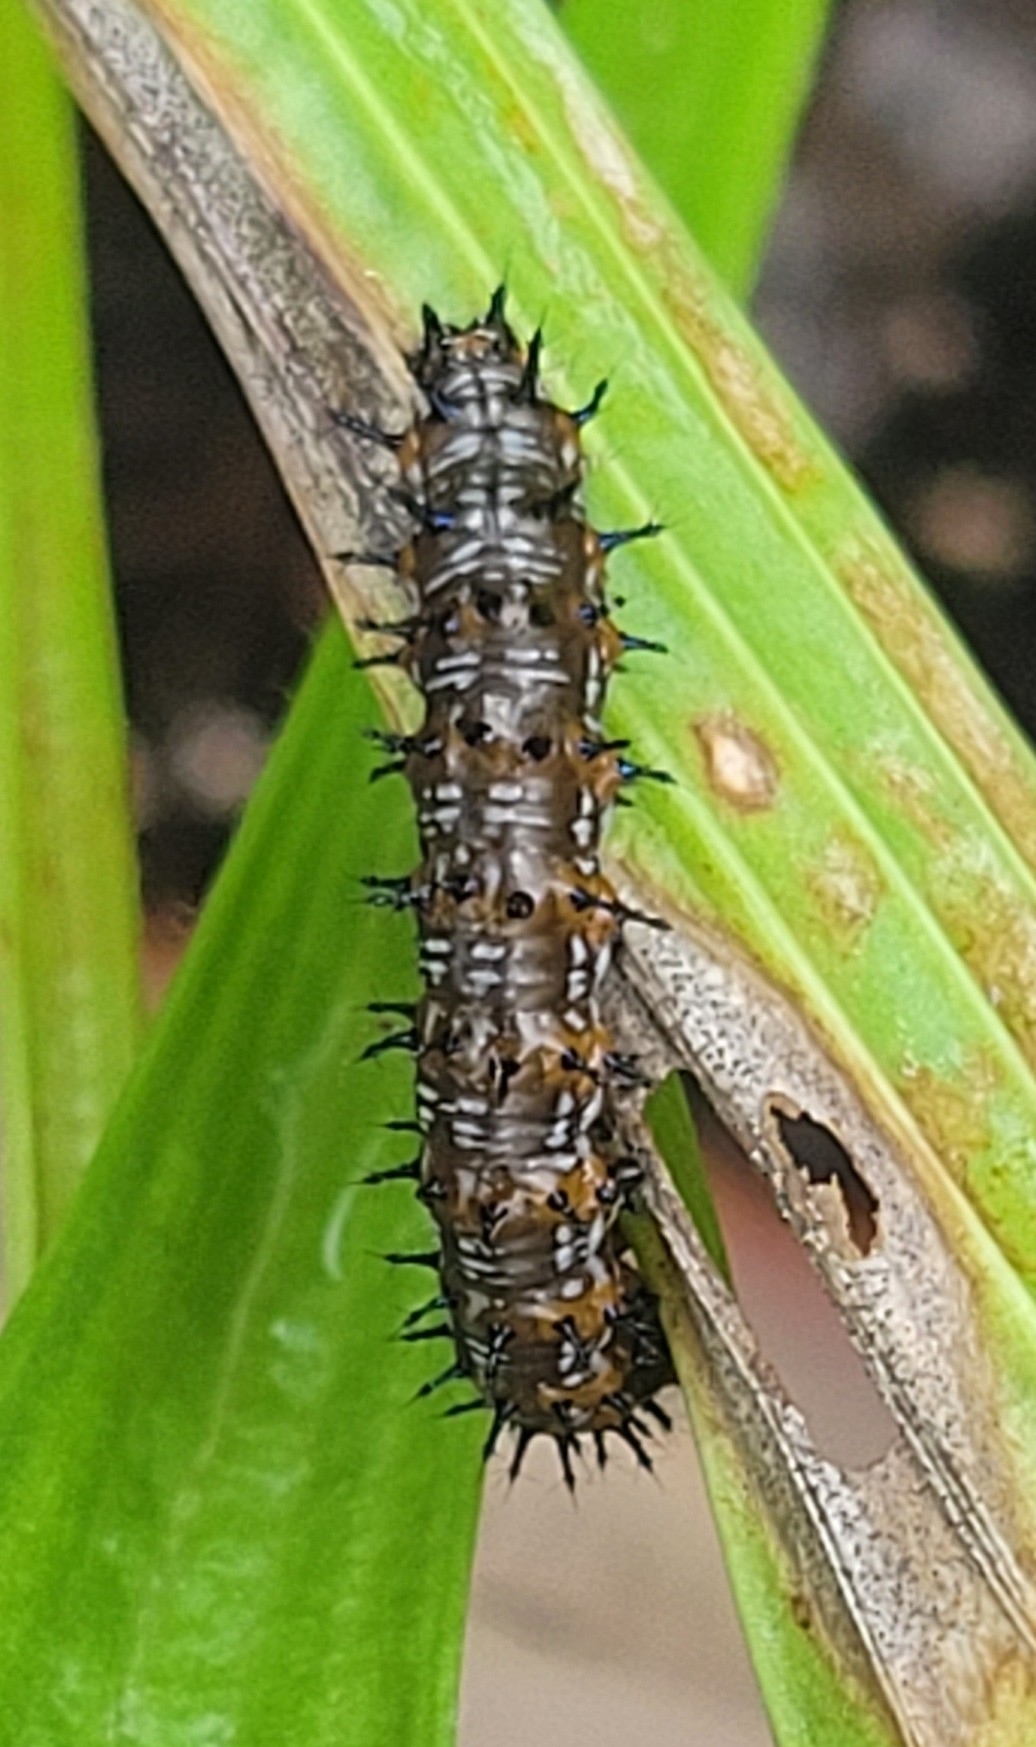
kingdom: Animalia
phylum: Arthropoda
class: Insecta
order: Lepidoptera
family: Nymphalidae
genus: Junonia
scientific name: Junonia coenia
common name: Common buckeye
